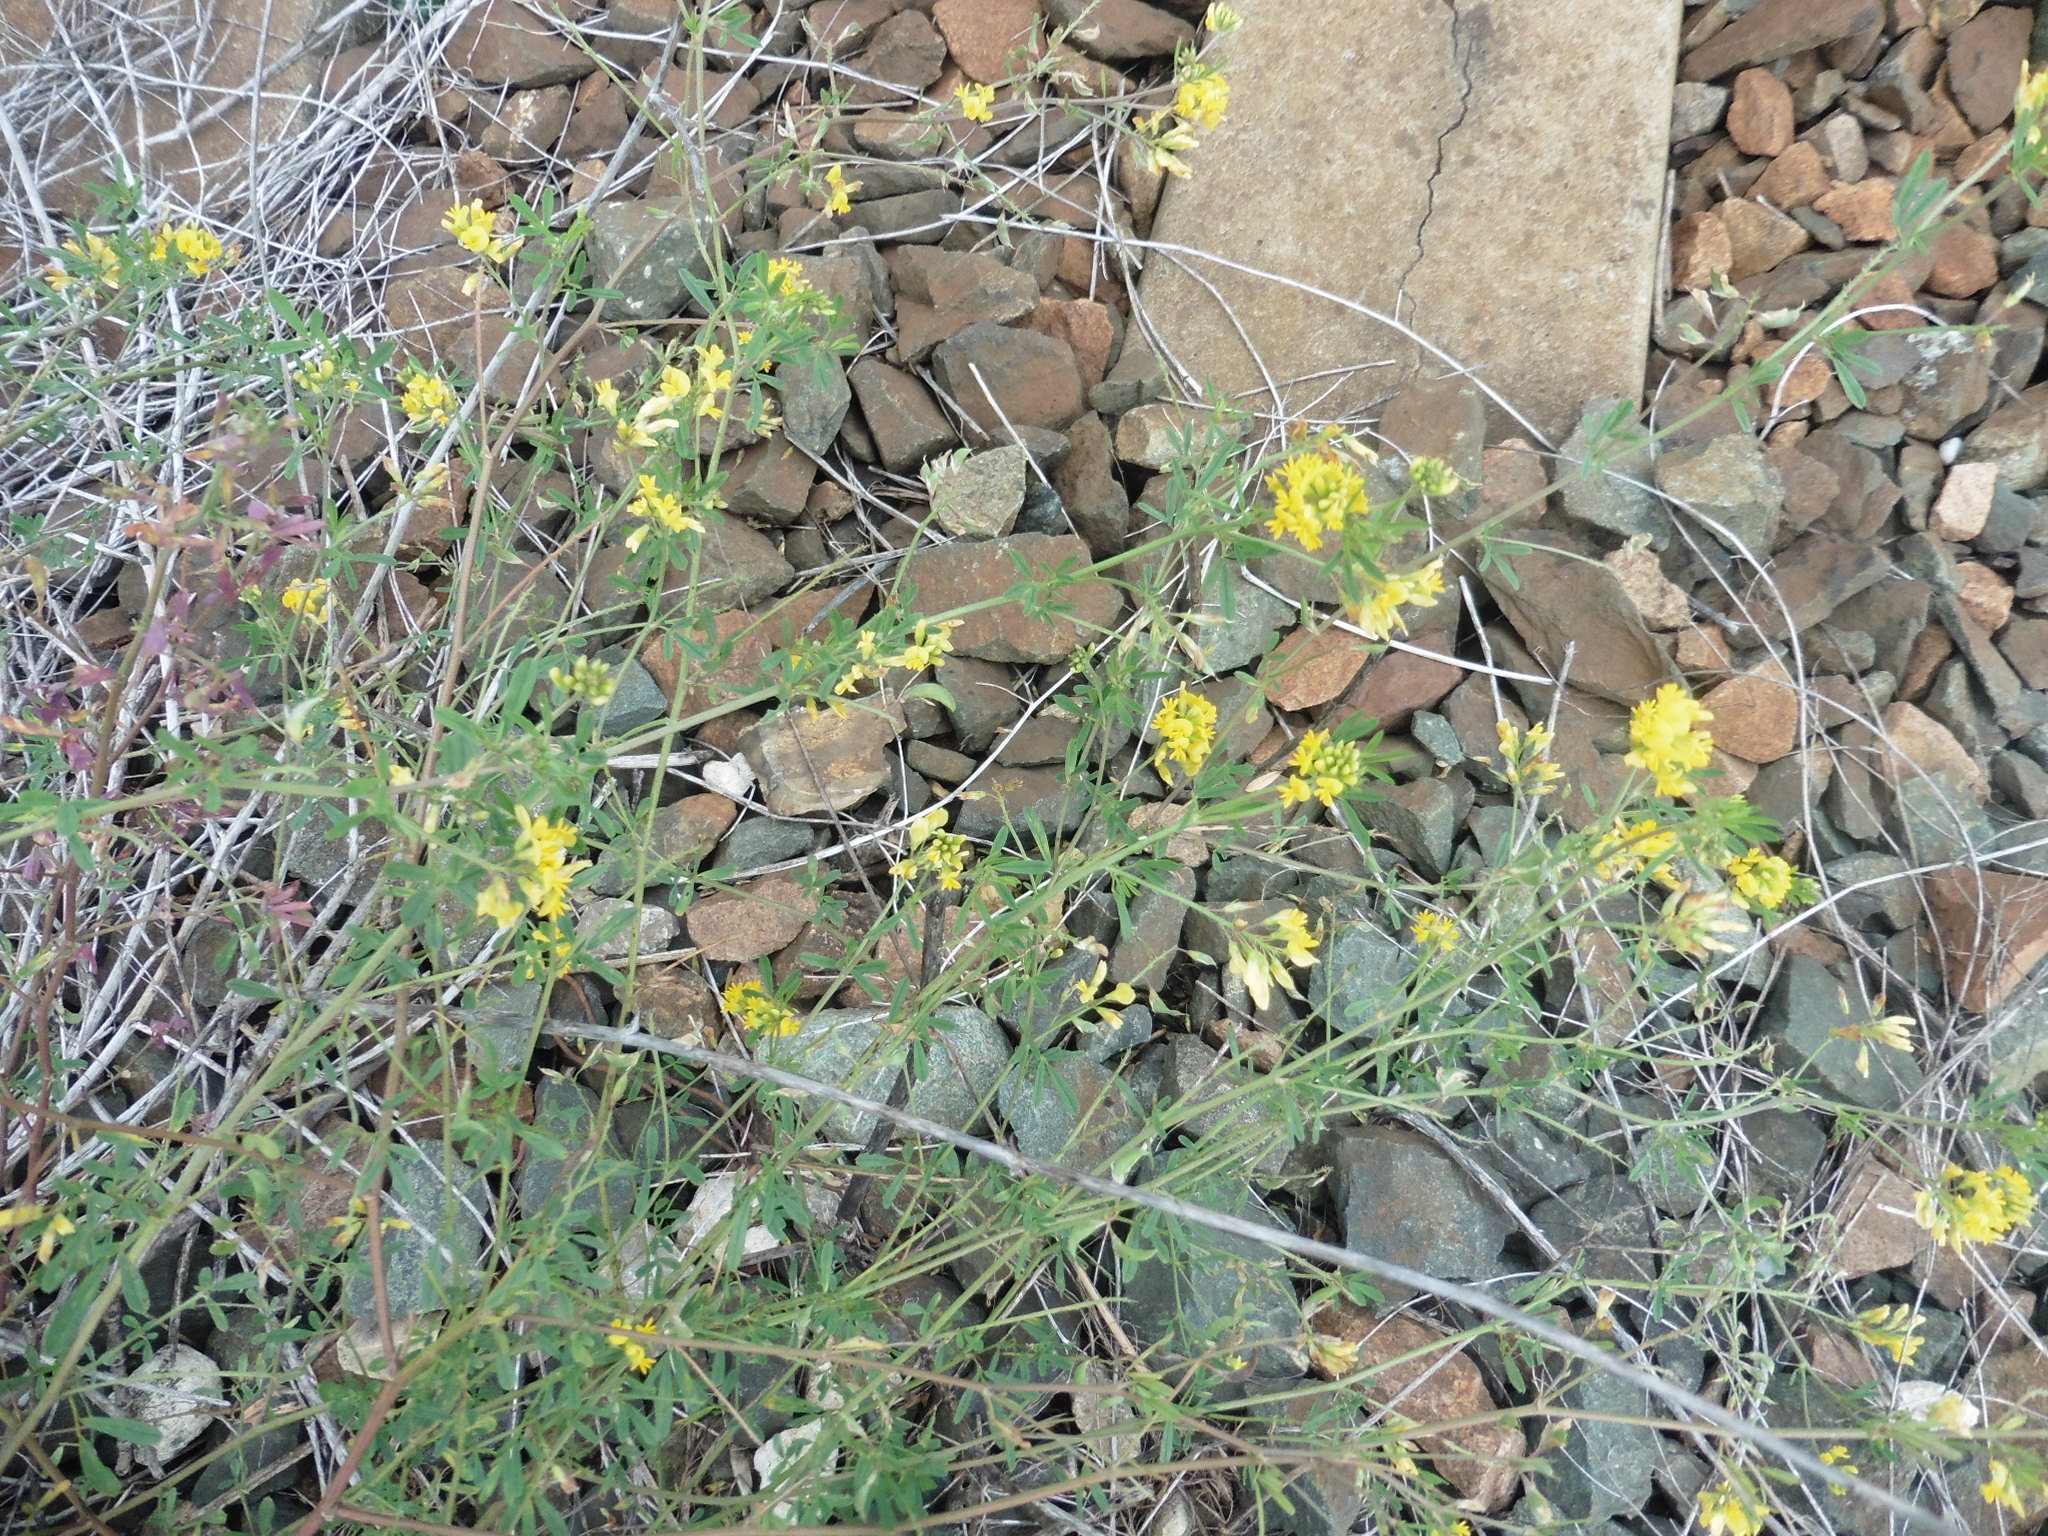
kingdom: Plantae
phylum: Tracheophyta
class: Magnoliopsida
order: Fabales
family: Fabaceae
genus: Medicago
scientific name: Medicago falcata
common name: Sickle medick
